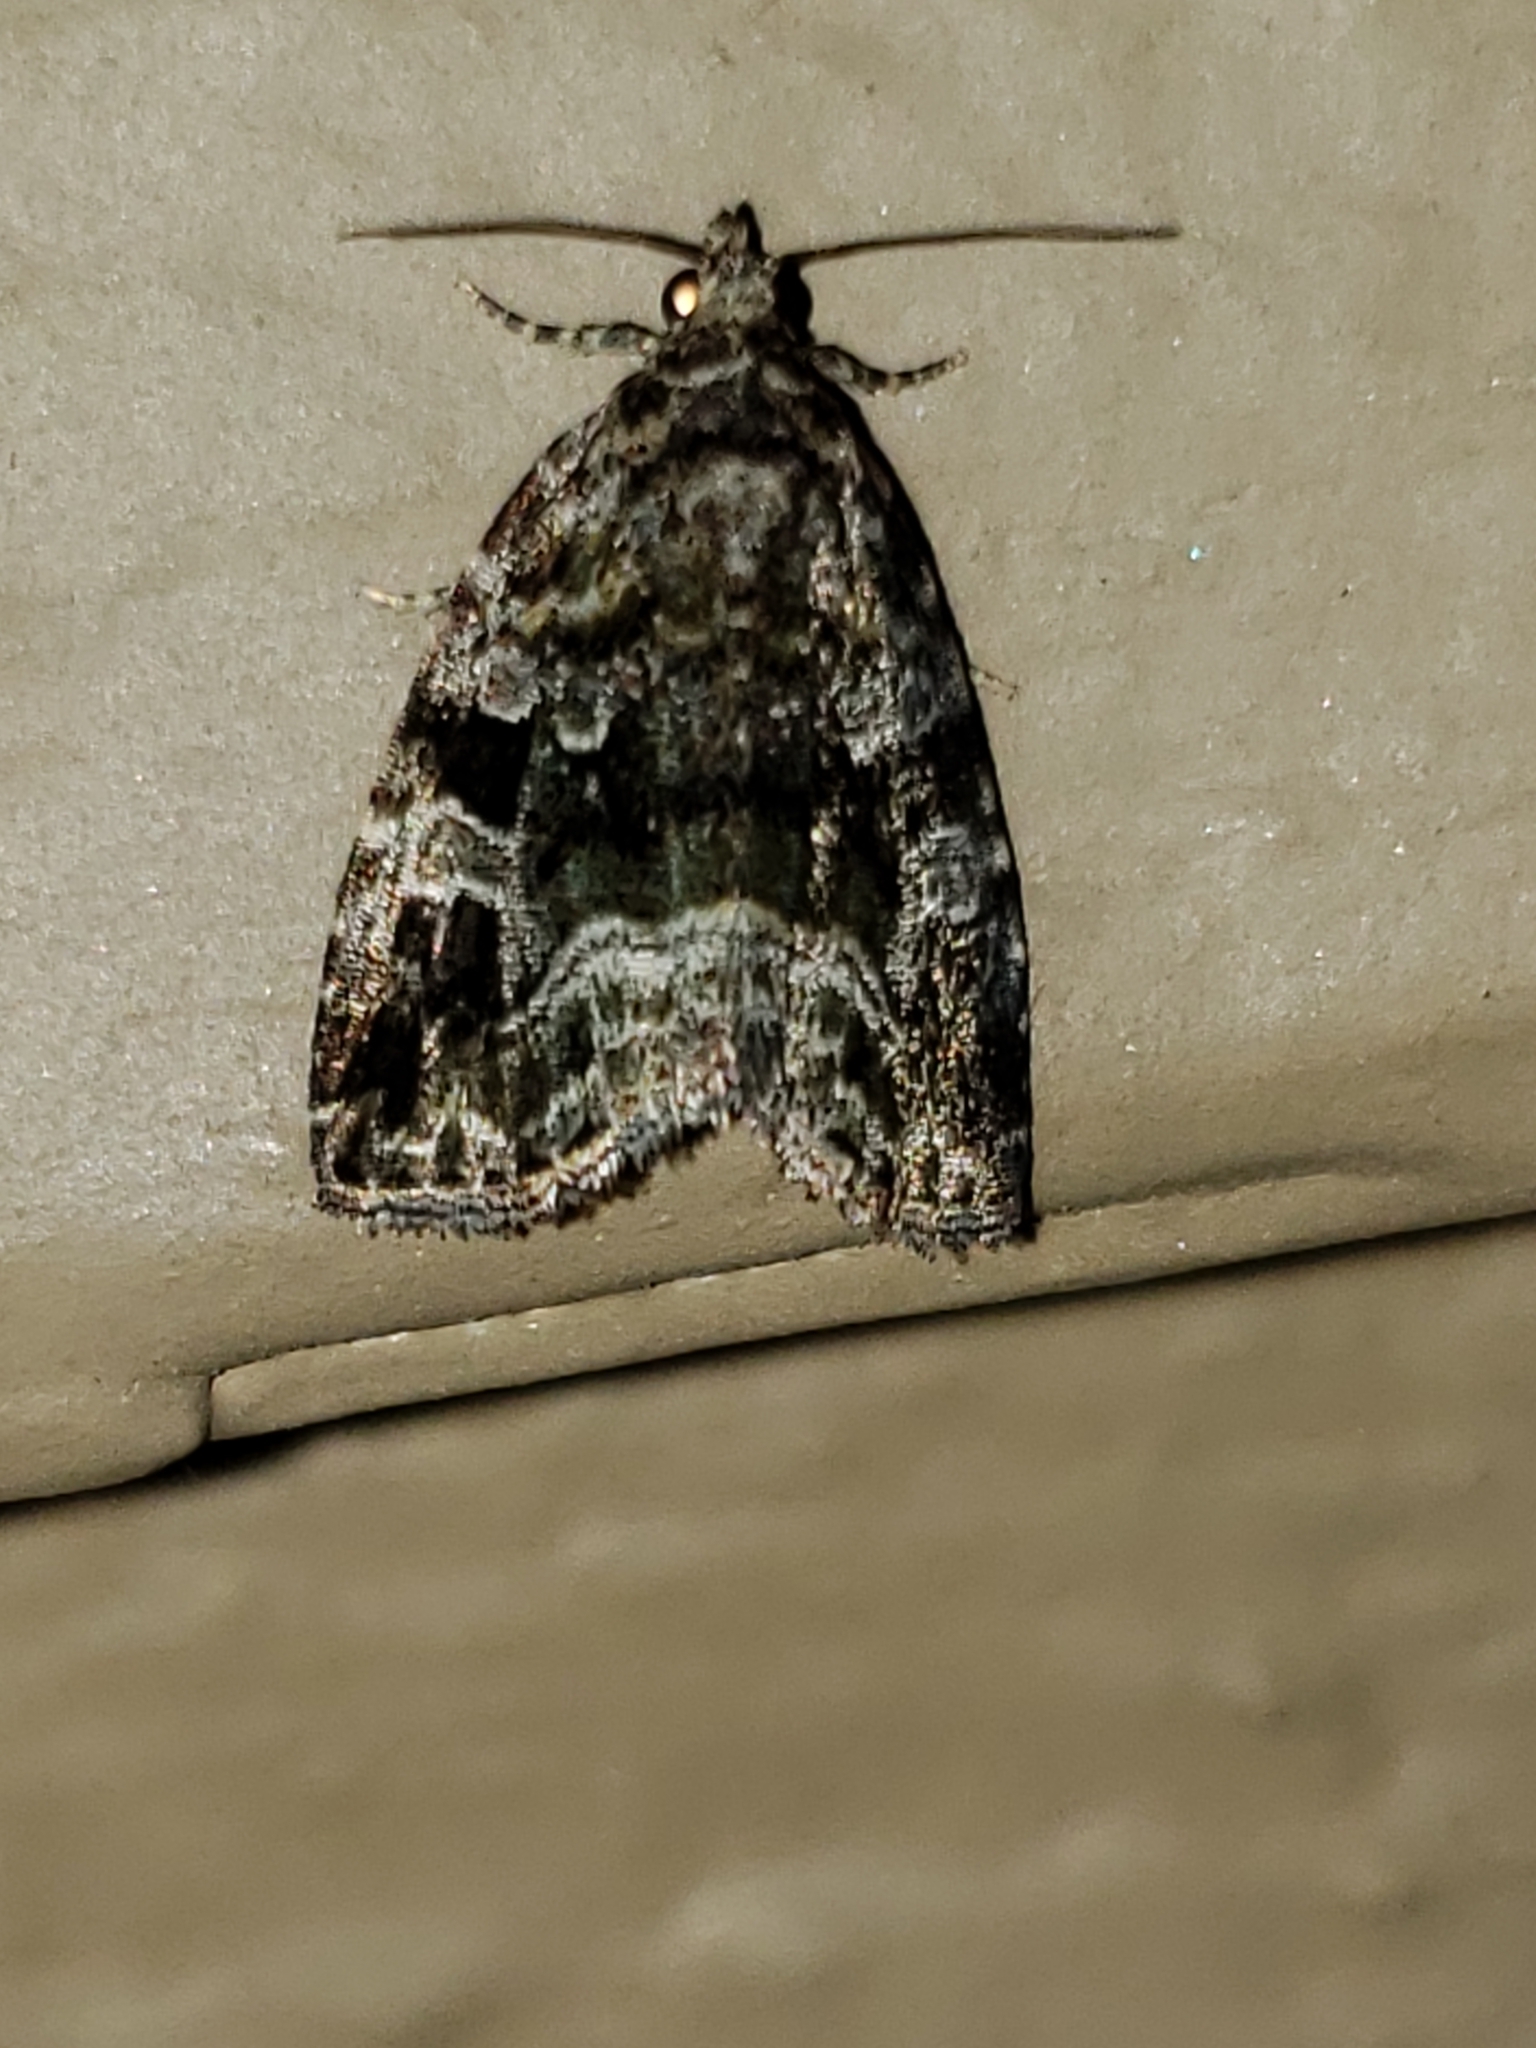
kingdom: Animalia
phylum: Arthropoda
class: Insecta
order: Lepidoptera
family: Noctuidae
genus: Protodeltote
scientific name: Protodeltote muscosula
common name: Large mossy glyph
